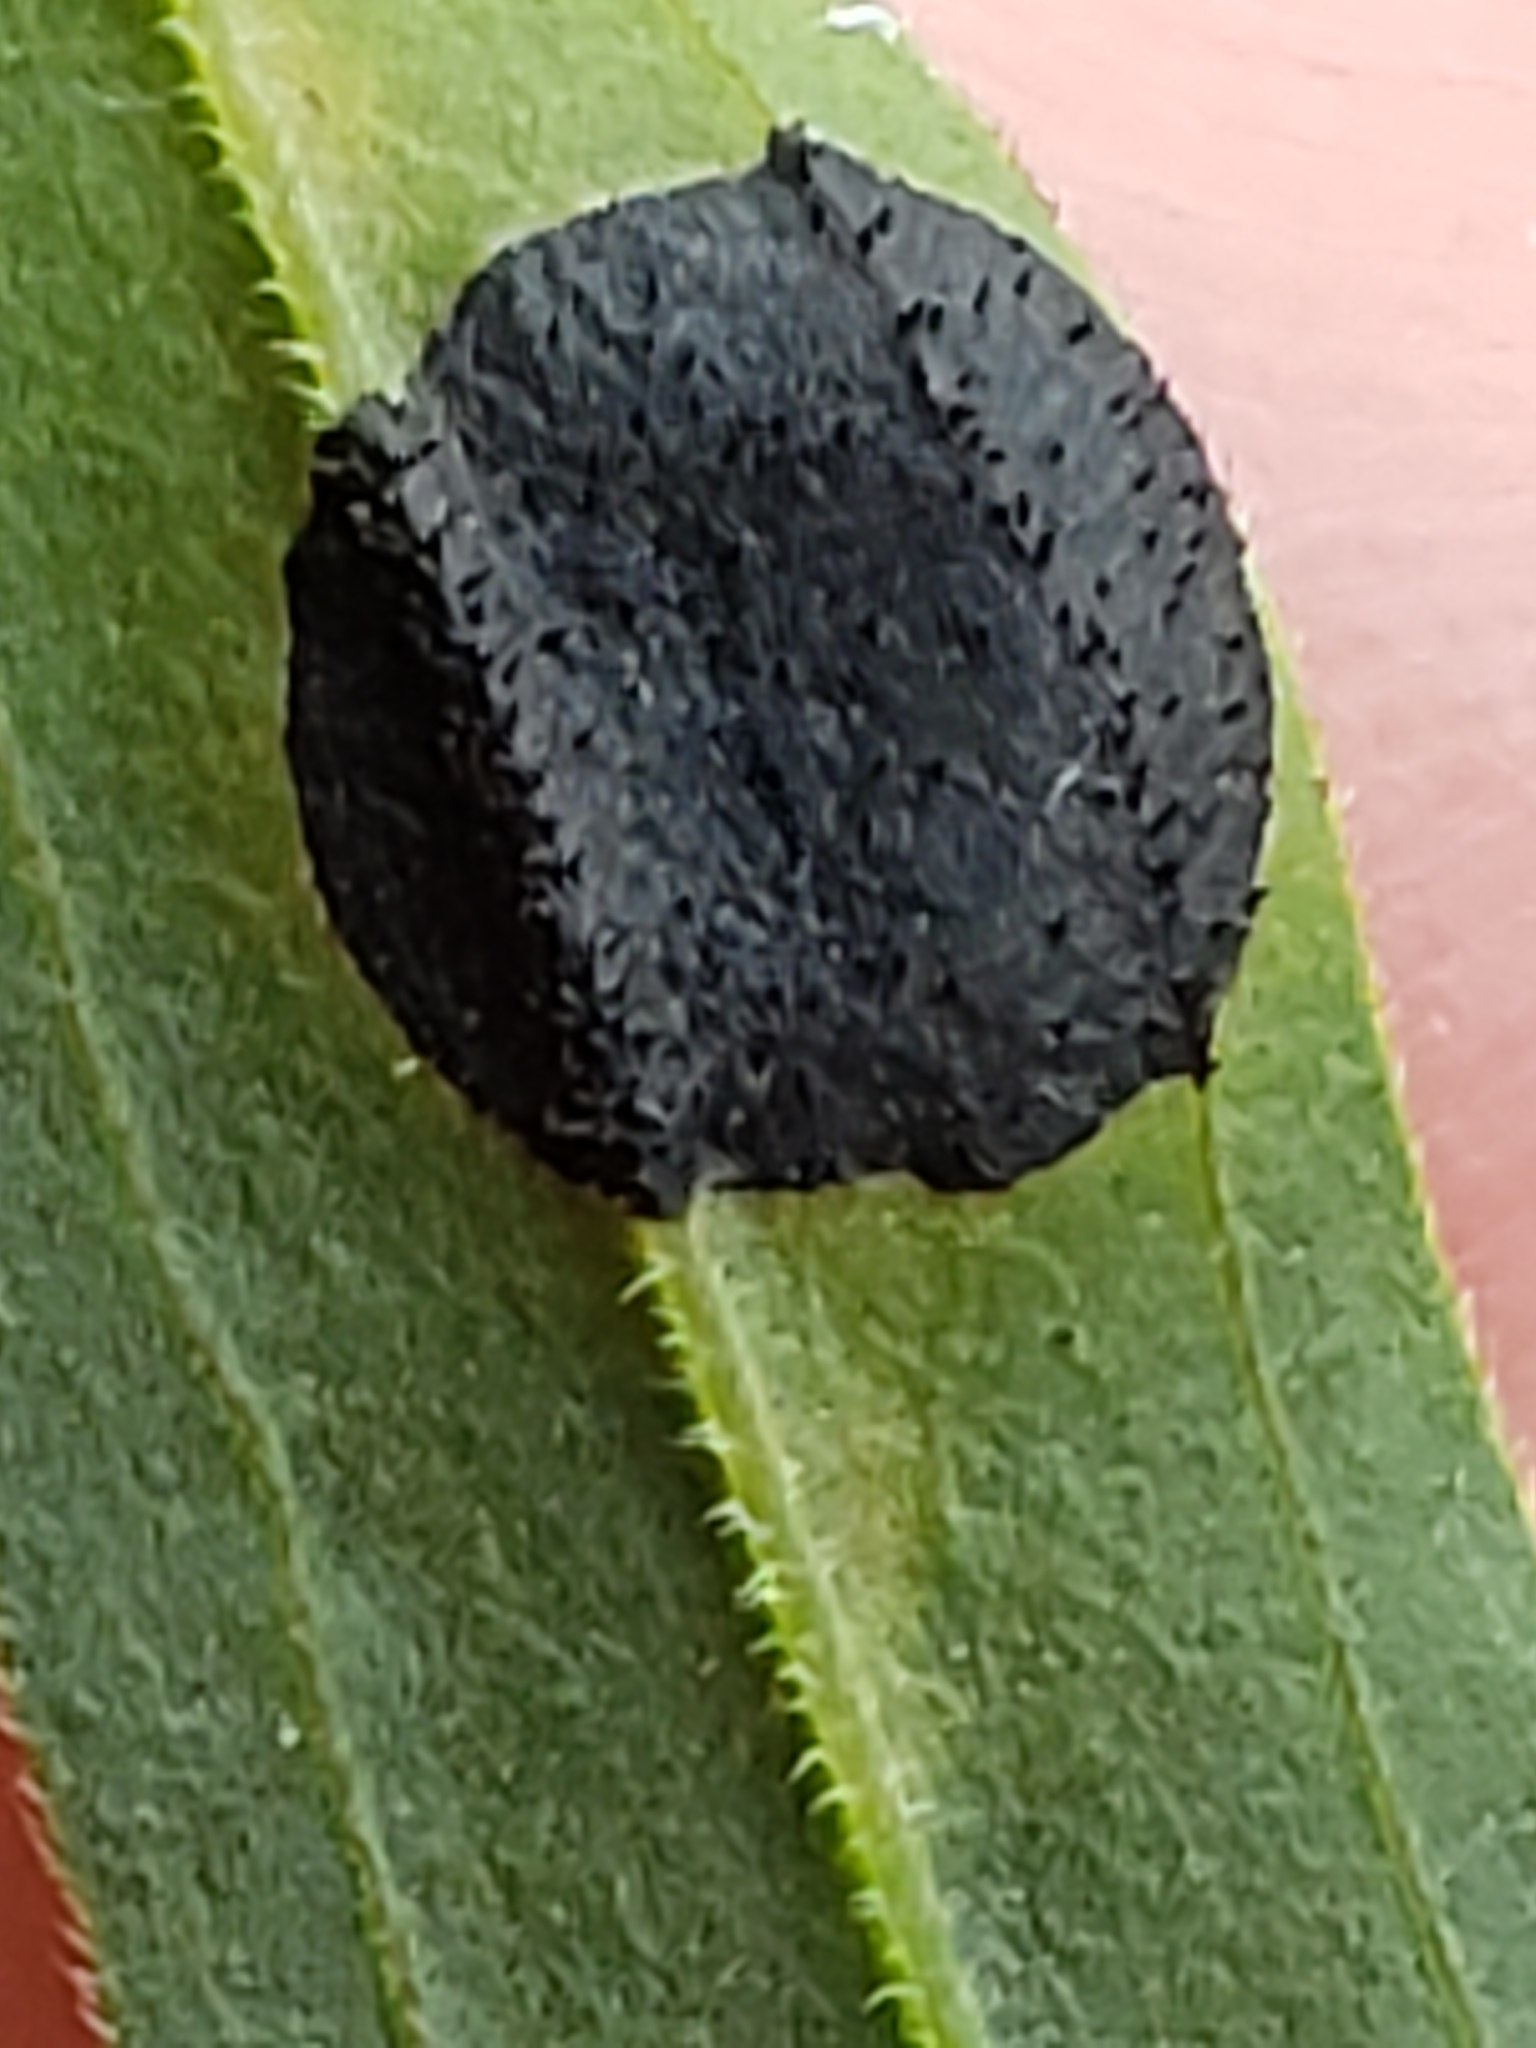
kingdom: Animalia
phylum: Arthropoda
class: Insecta
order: Diptera
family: Cecidomyiidae
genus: Asteromyia
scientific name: Asteromyia euthamiae
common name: Euthamia leaf gall midge
